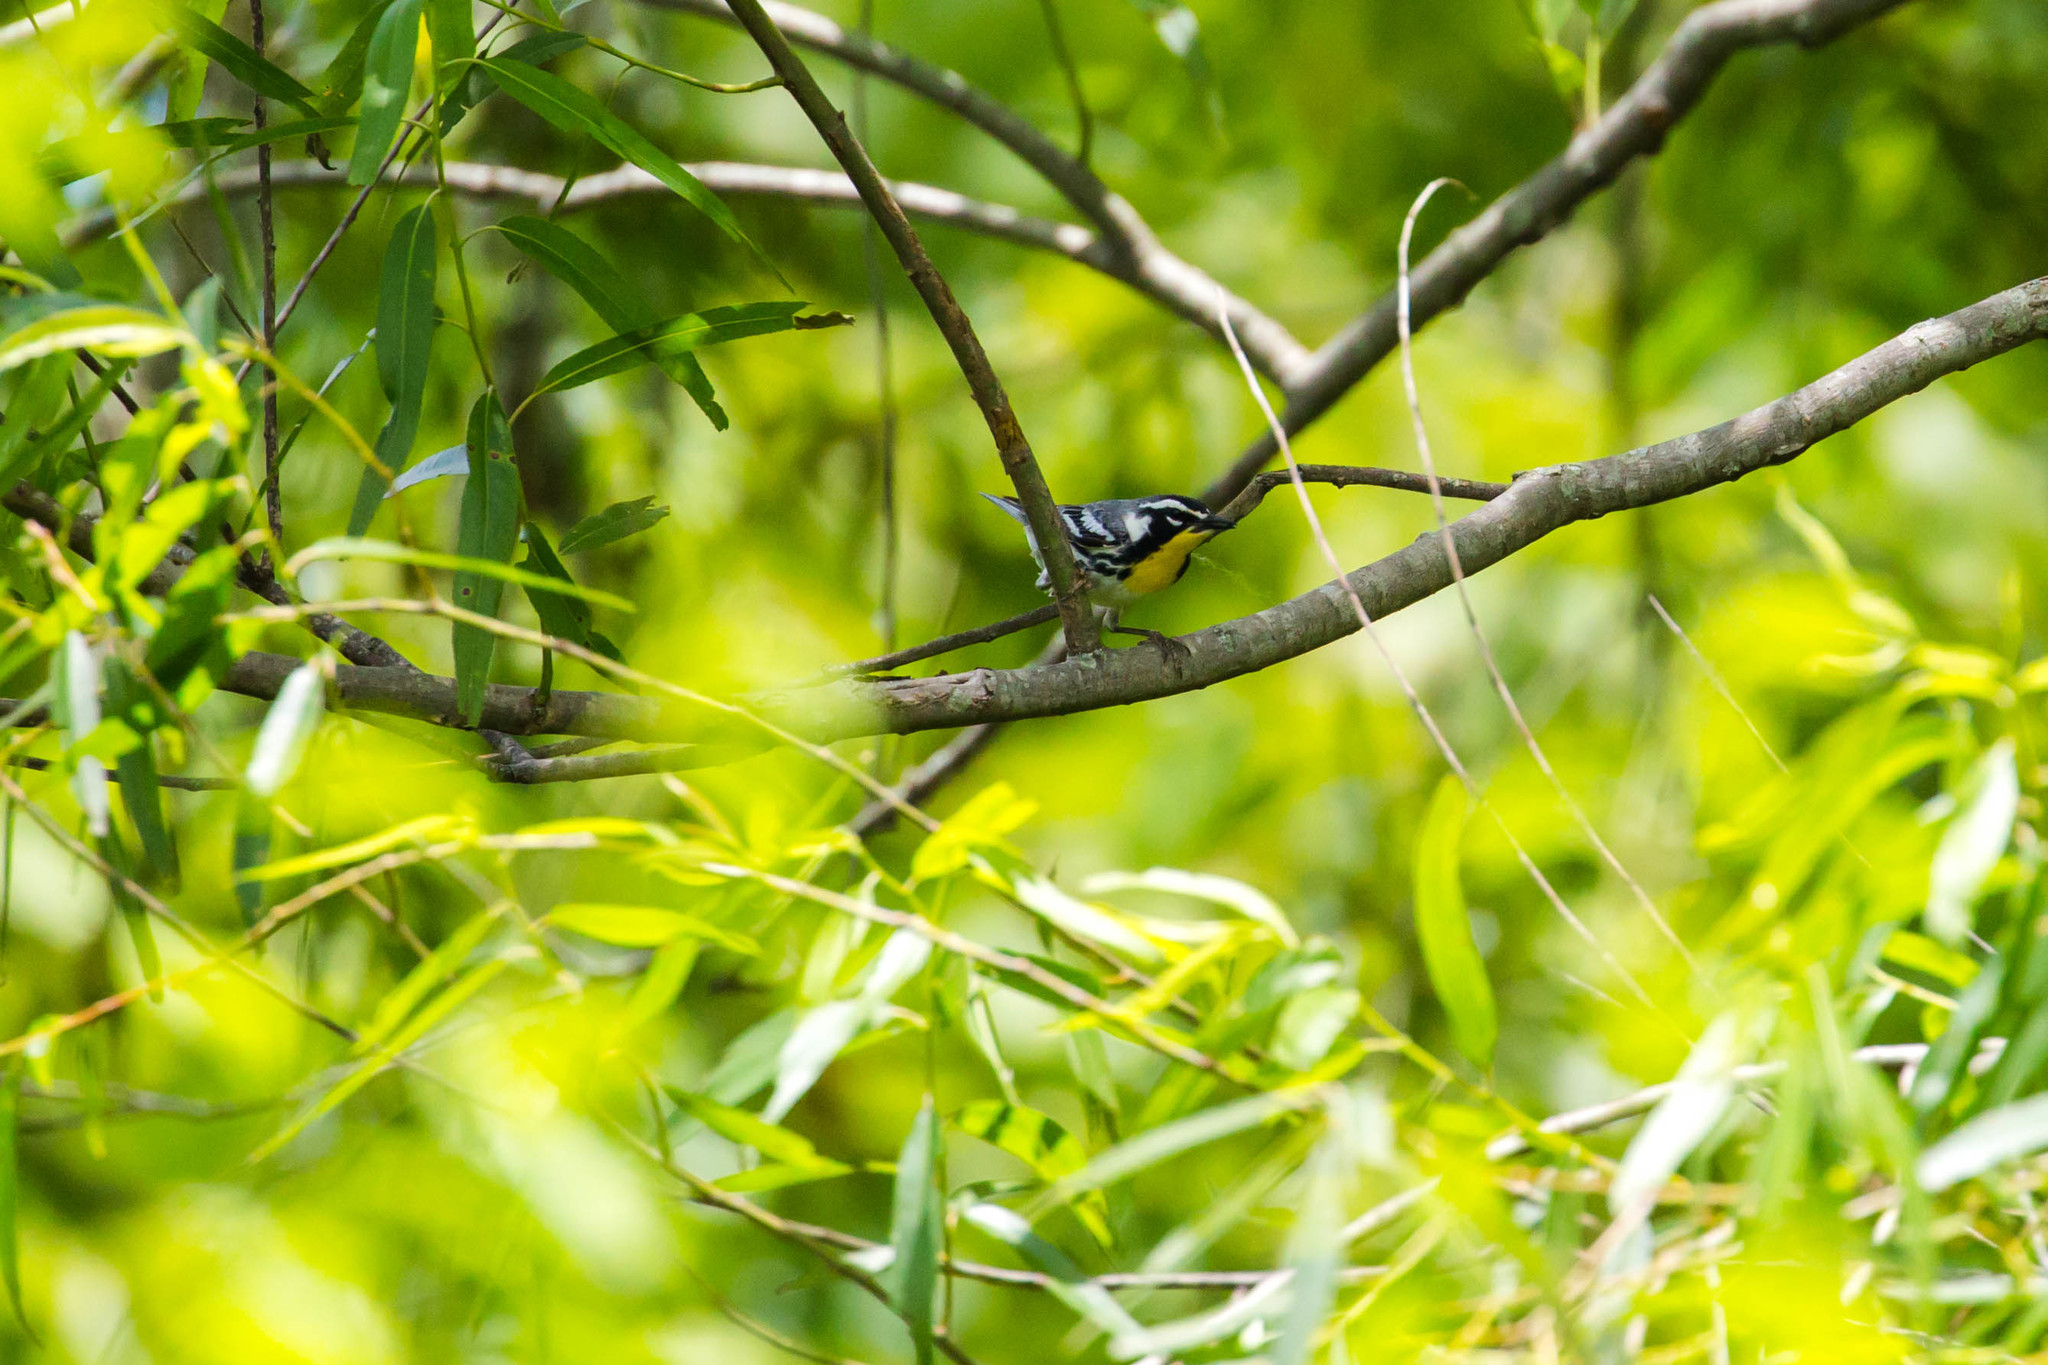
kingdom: Animalia
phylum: Chordata
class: Aves
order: Passeriformes
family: Parulidae
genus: Setophaga
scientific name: Setophaga dominica
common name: Yellow-throated warbler
